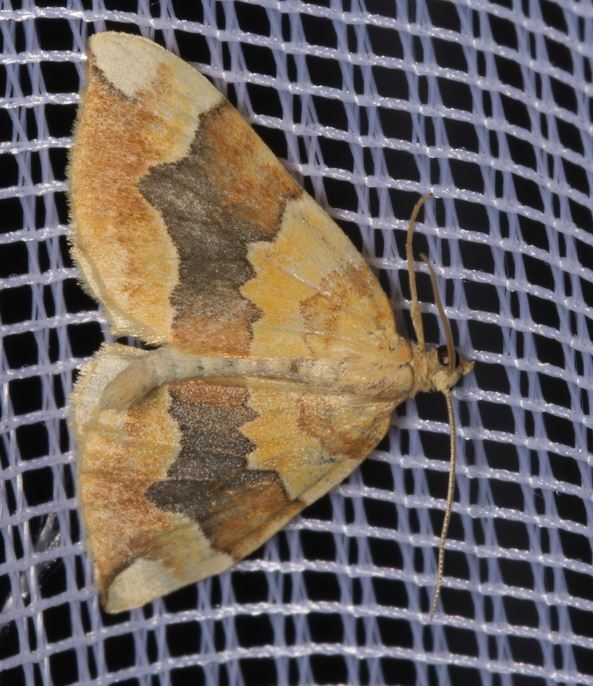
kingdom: Animalia
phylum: Arthropoda
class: Insecta
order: Lepidoptera
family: Geometridae
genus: Cidaria
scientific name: Cidaria fulvata
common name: Barred yellow
